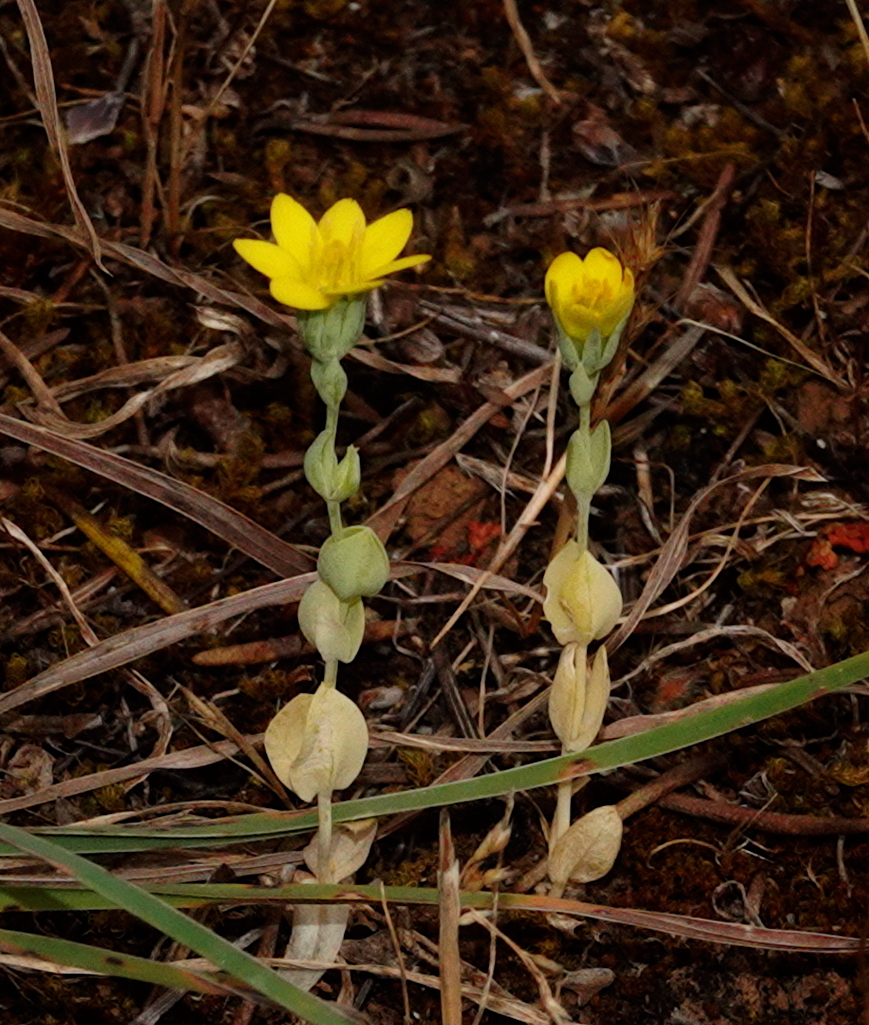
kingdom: Plantae
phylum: Tracheophyta
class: Magnoliopsida
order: Gentianales
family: Gentianaceae
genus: Blackstonia
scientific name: Blackstonia acuminata
